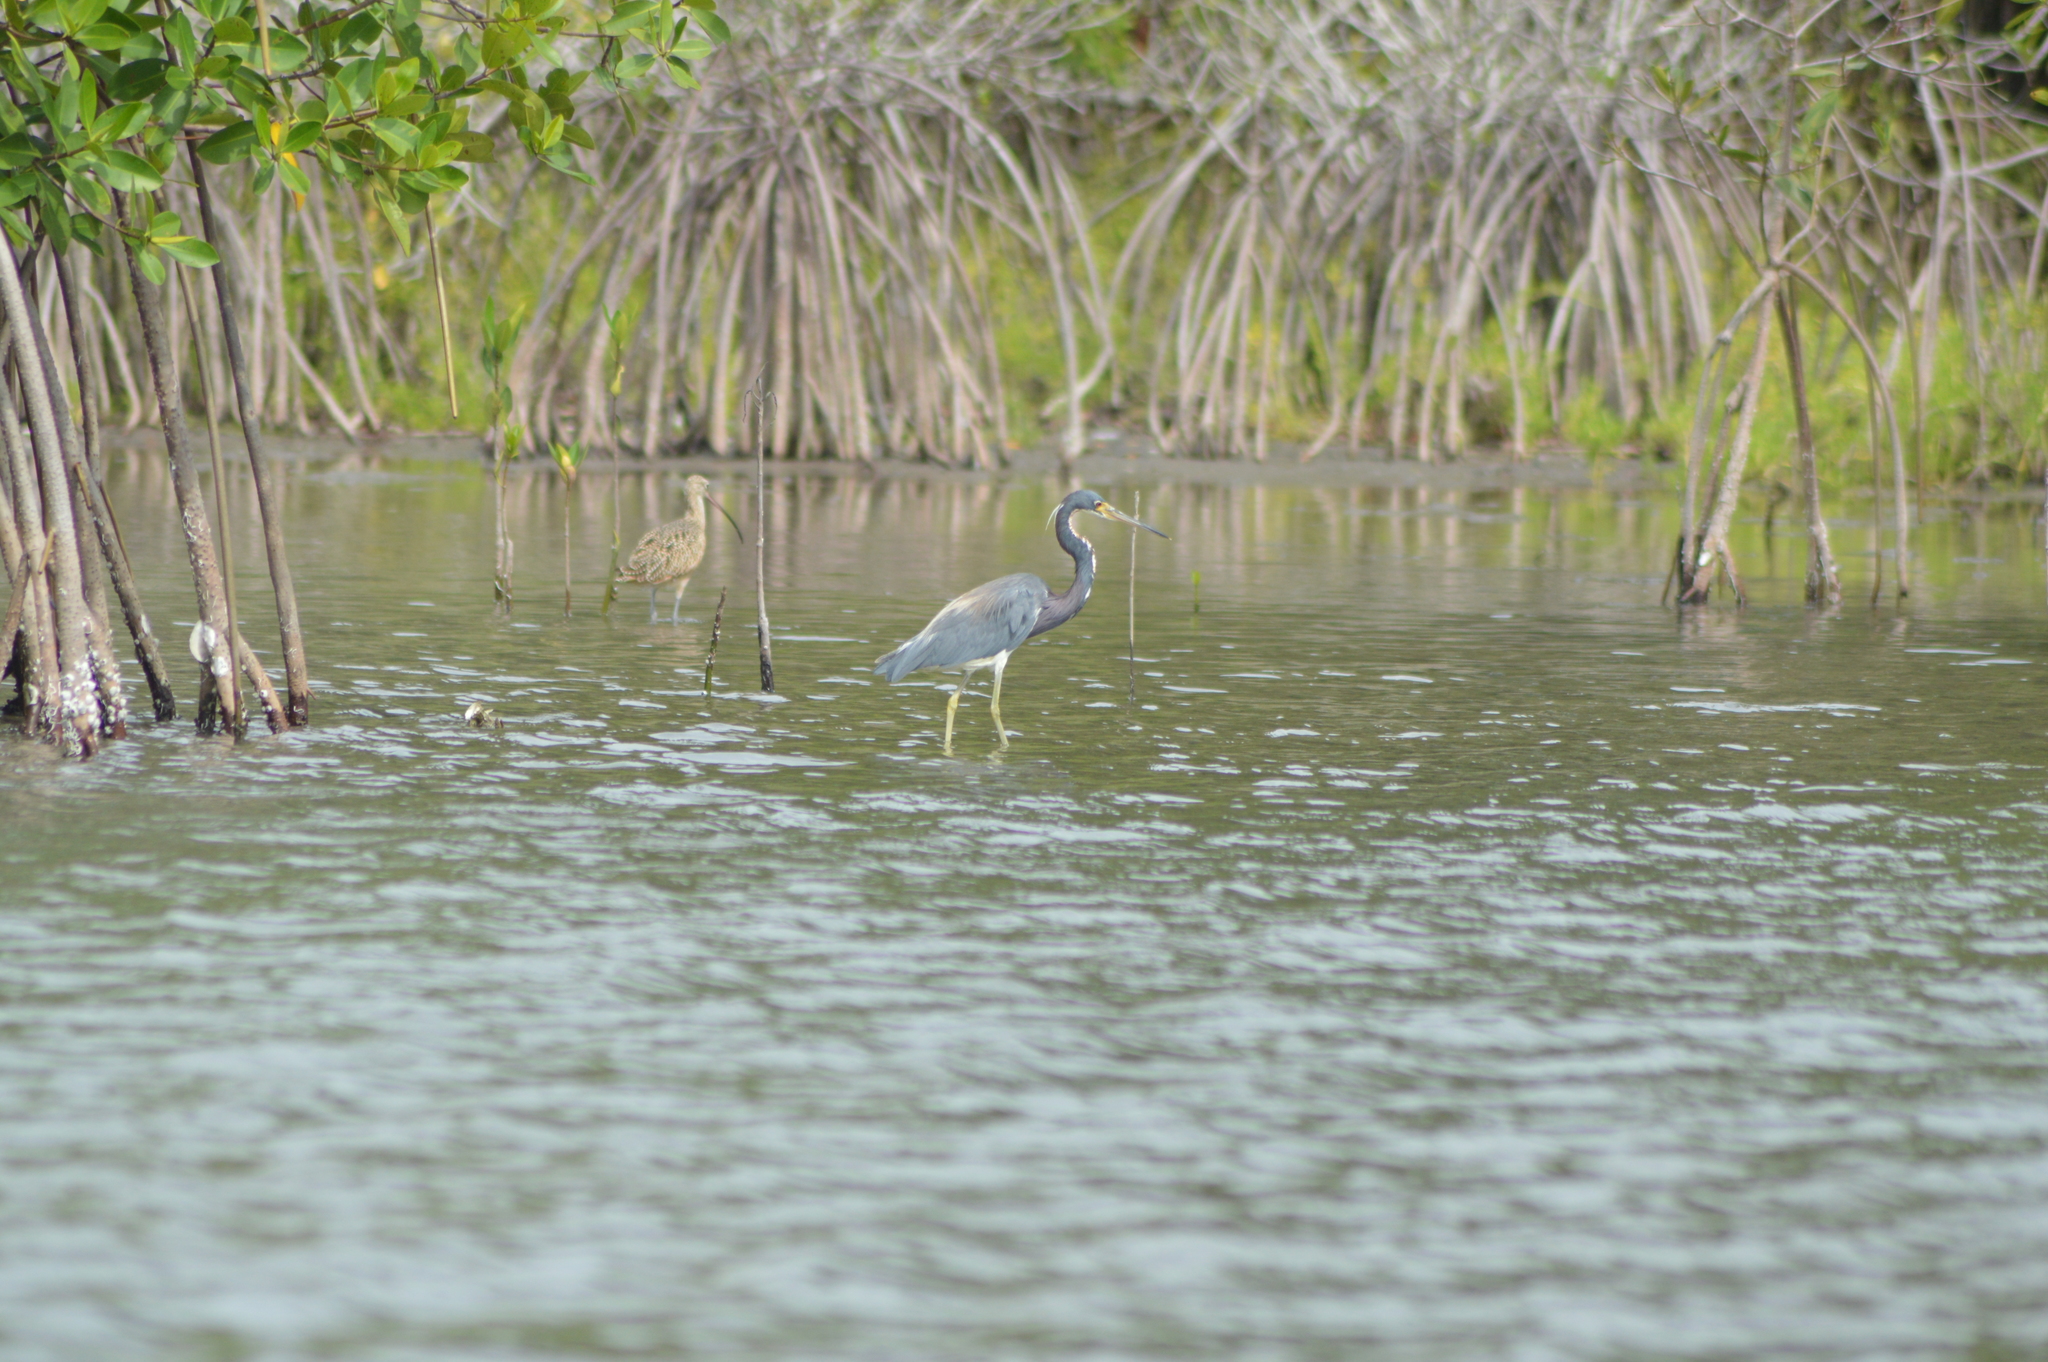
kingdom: Animalia
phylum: Chordata
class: Aves
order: Pelecaniformes
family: Ardeidae
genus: Egretta
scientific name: Egretta tricolor
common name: Tricolored heron
